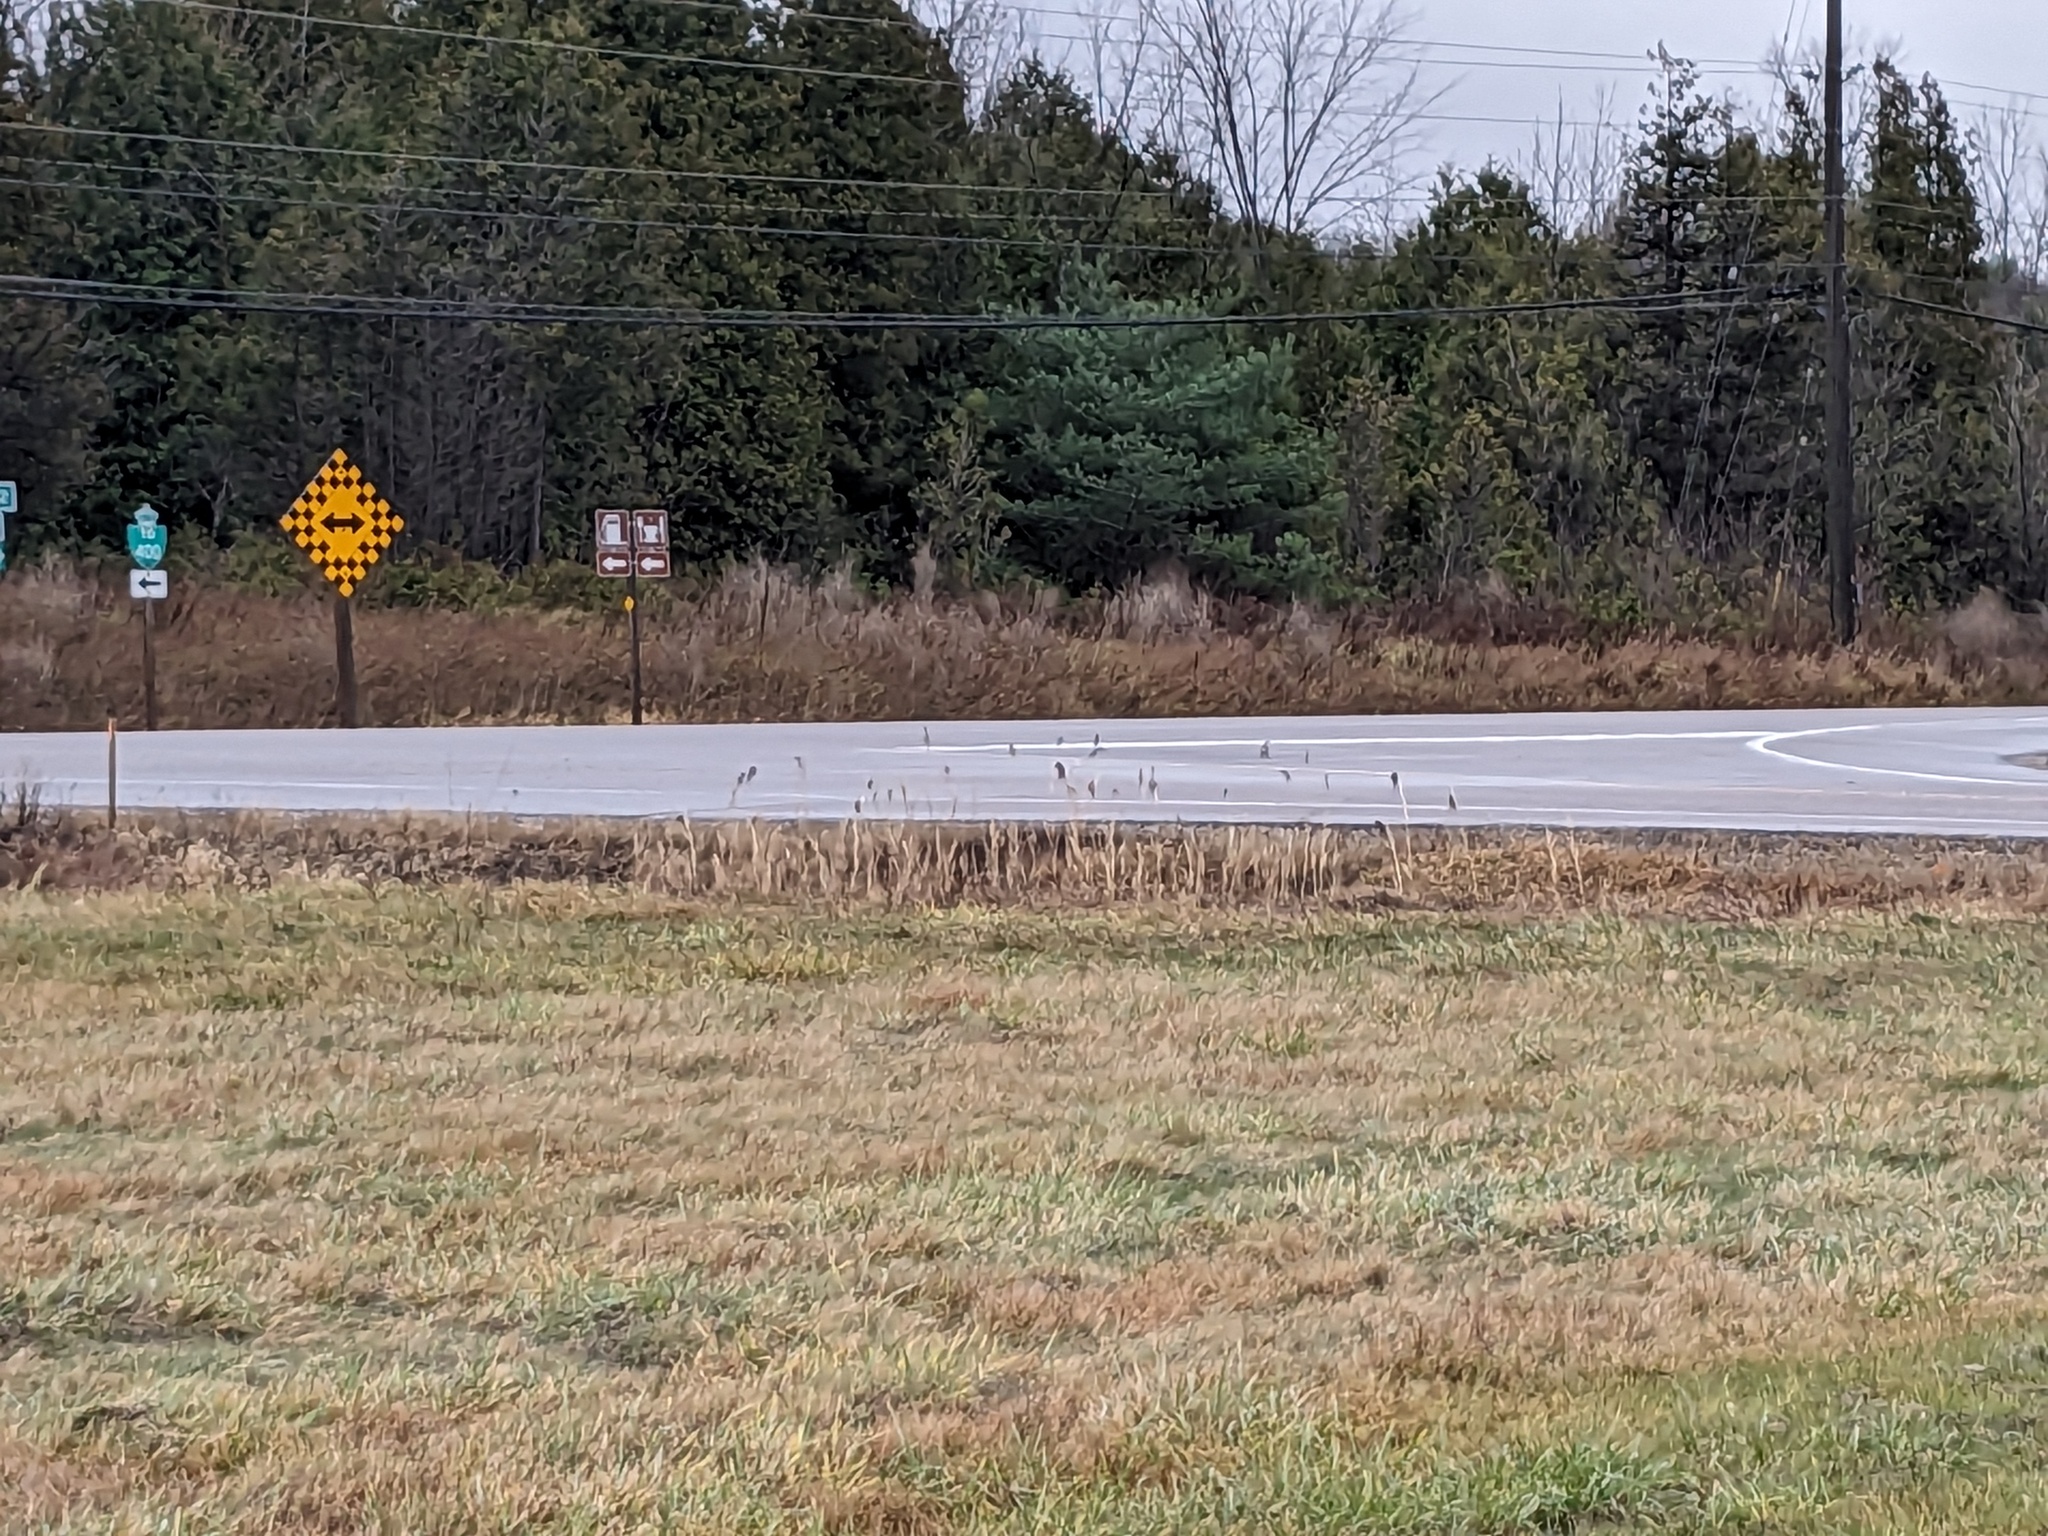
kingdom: Plantae
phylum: Tracheophyta
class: Liliopsida
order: Poales
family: Poaceae
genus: Phragmites
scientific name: Phragmites australis
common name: Common reed
